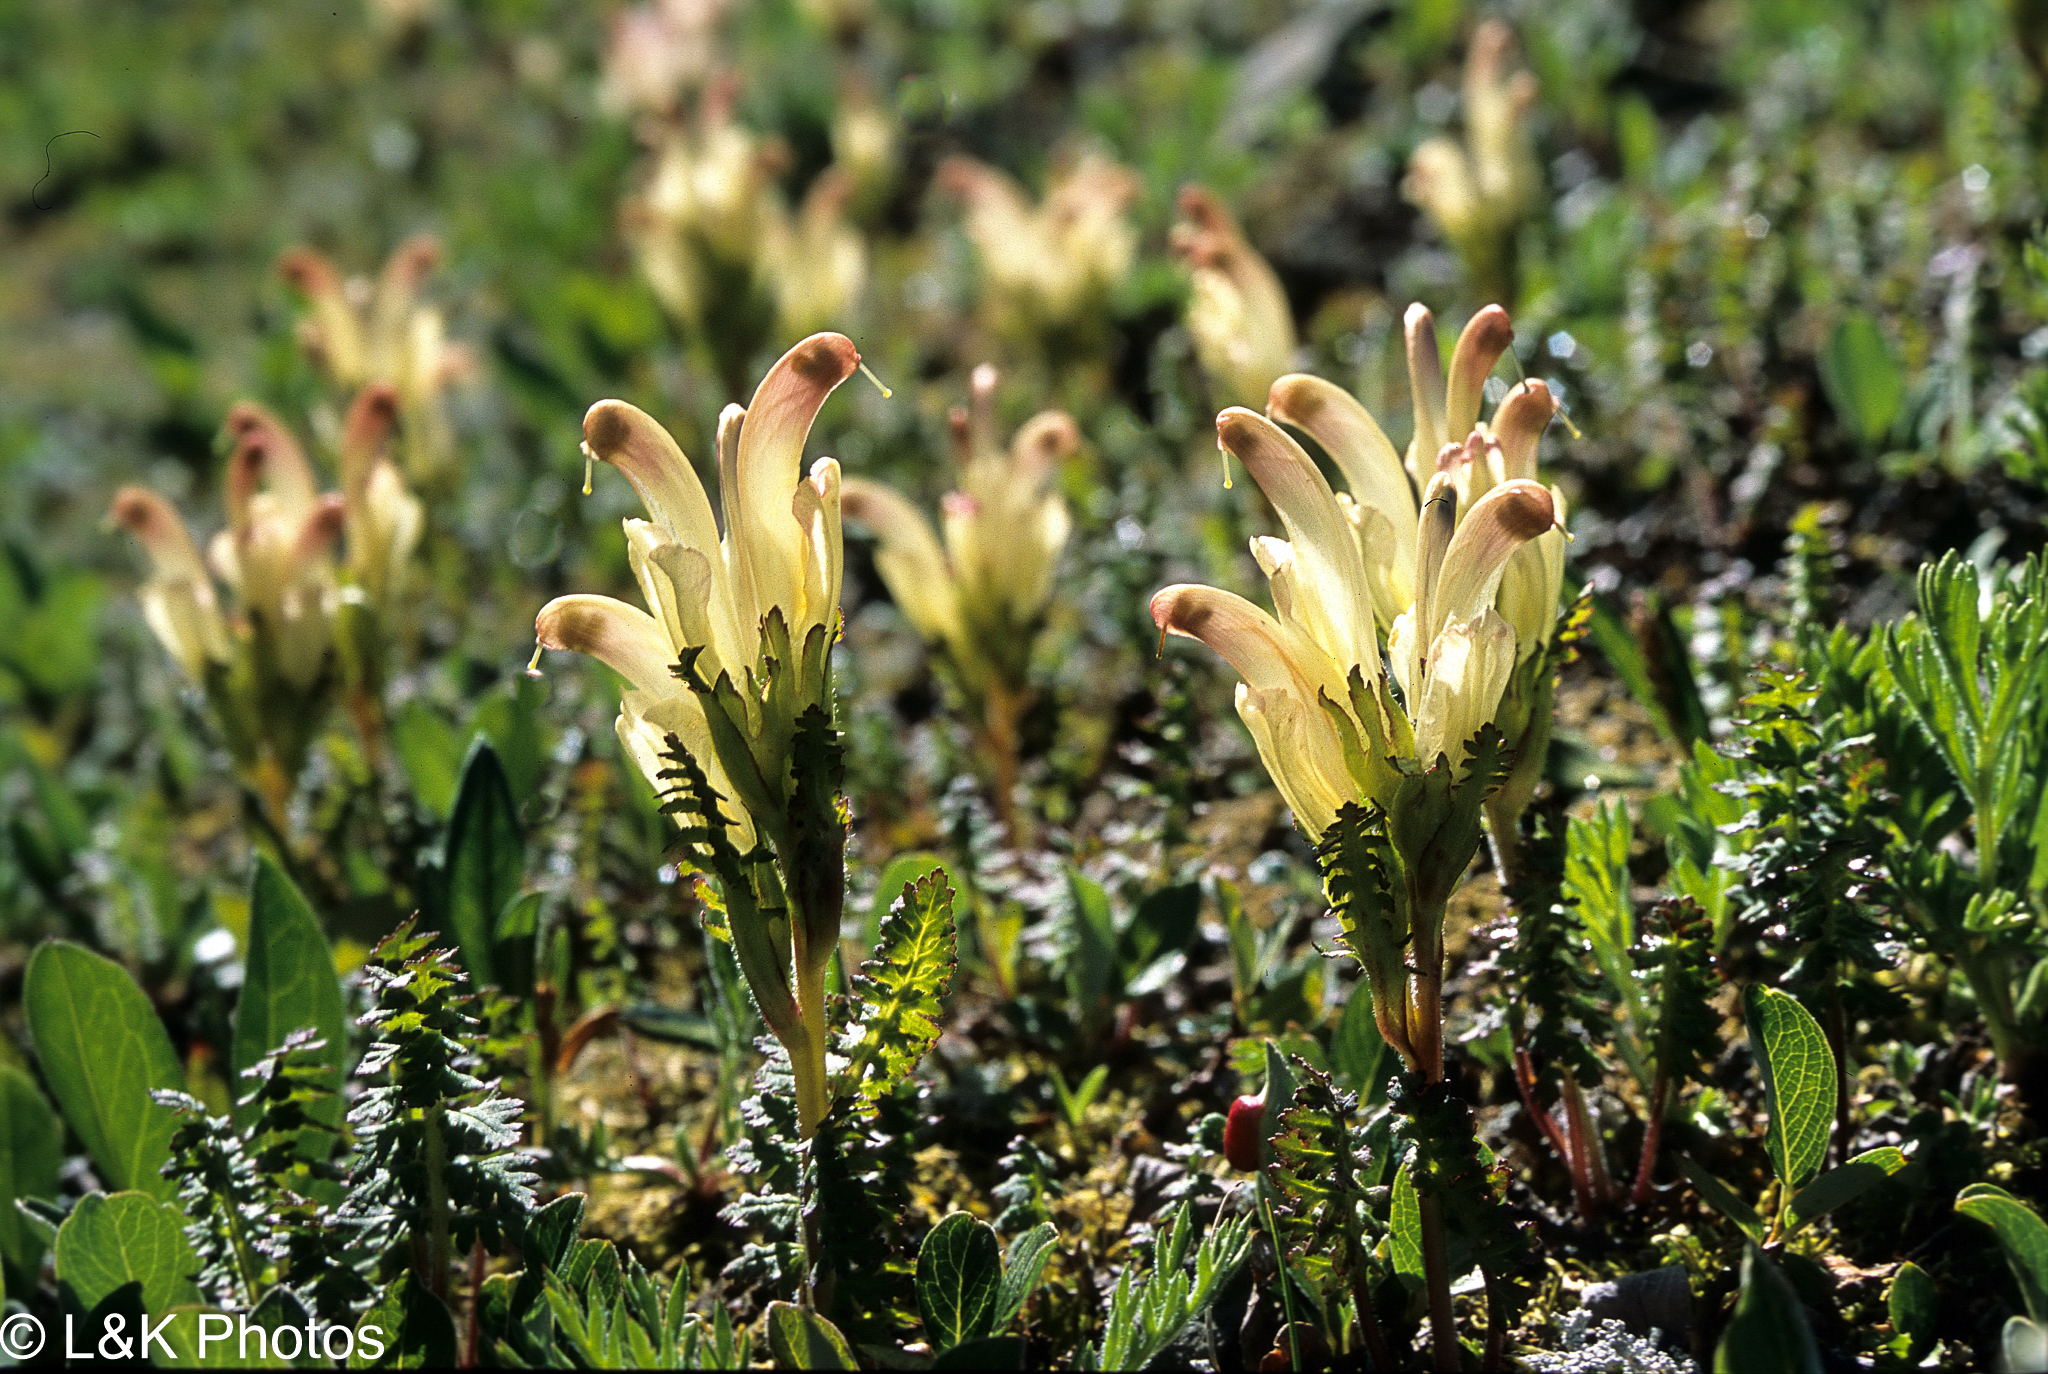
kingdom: Plantae
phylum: Tracheophyta
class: Magnoliopsida
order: Lamiales
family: Orobanchaceae
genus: Pedicularis
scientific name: Pedicularis capitata
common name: Capitate lousewort
